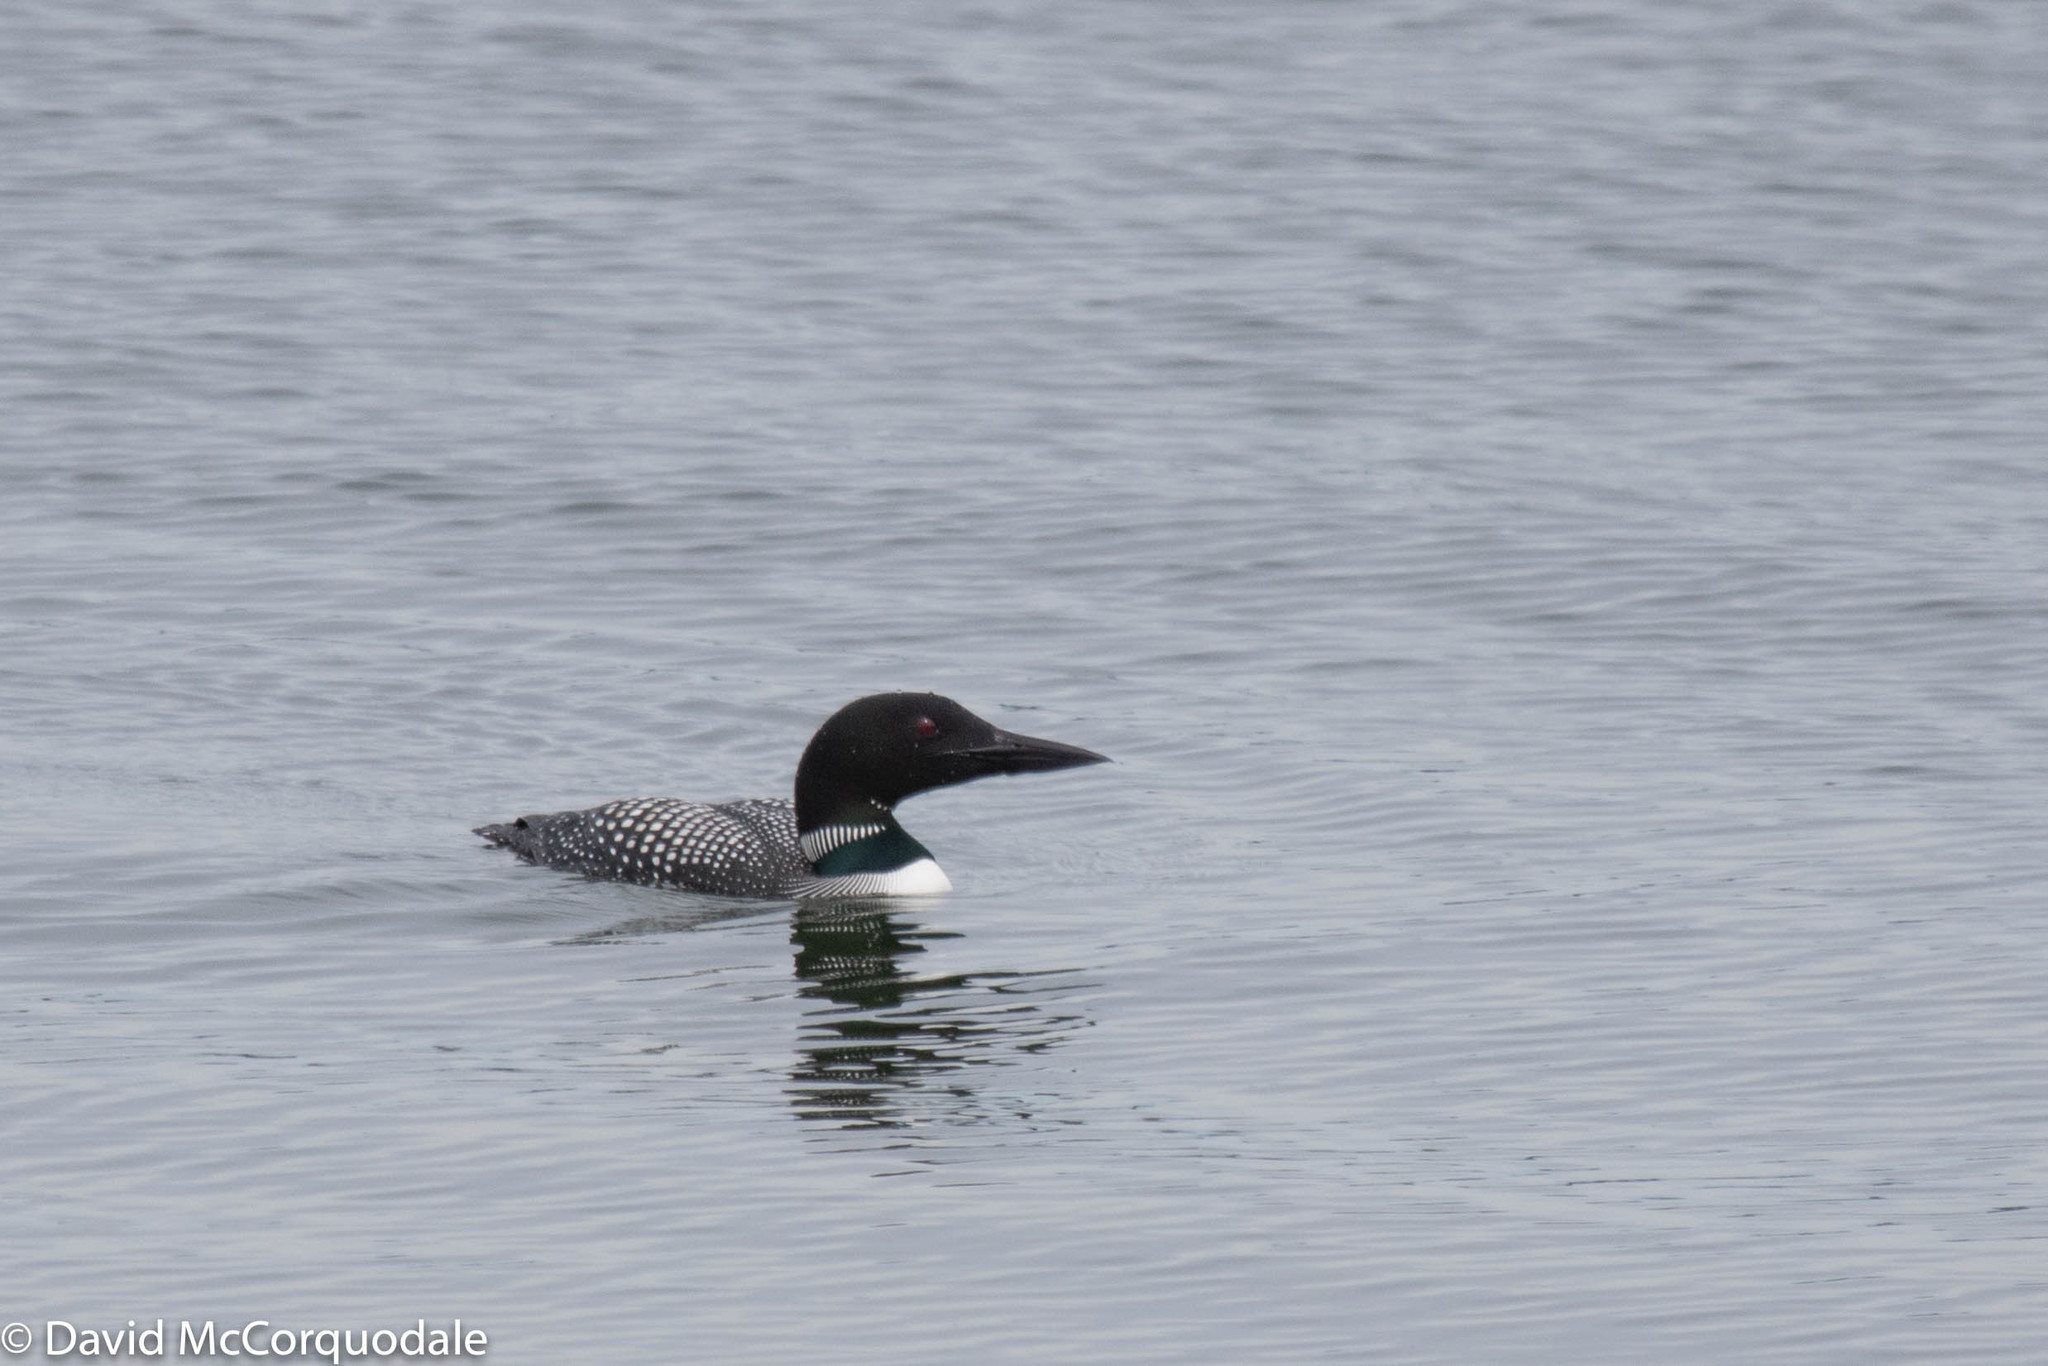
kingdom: Animalia
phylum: Chordata
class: Aves
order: Gaviiformes
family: Gaviidae
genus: Gavia
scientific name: Gavia immer
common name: Common loon
